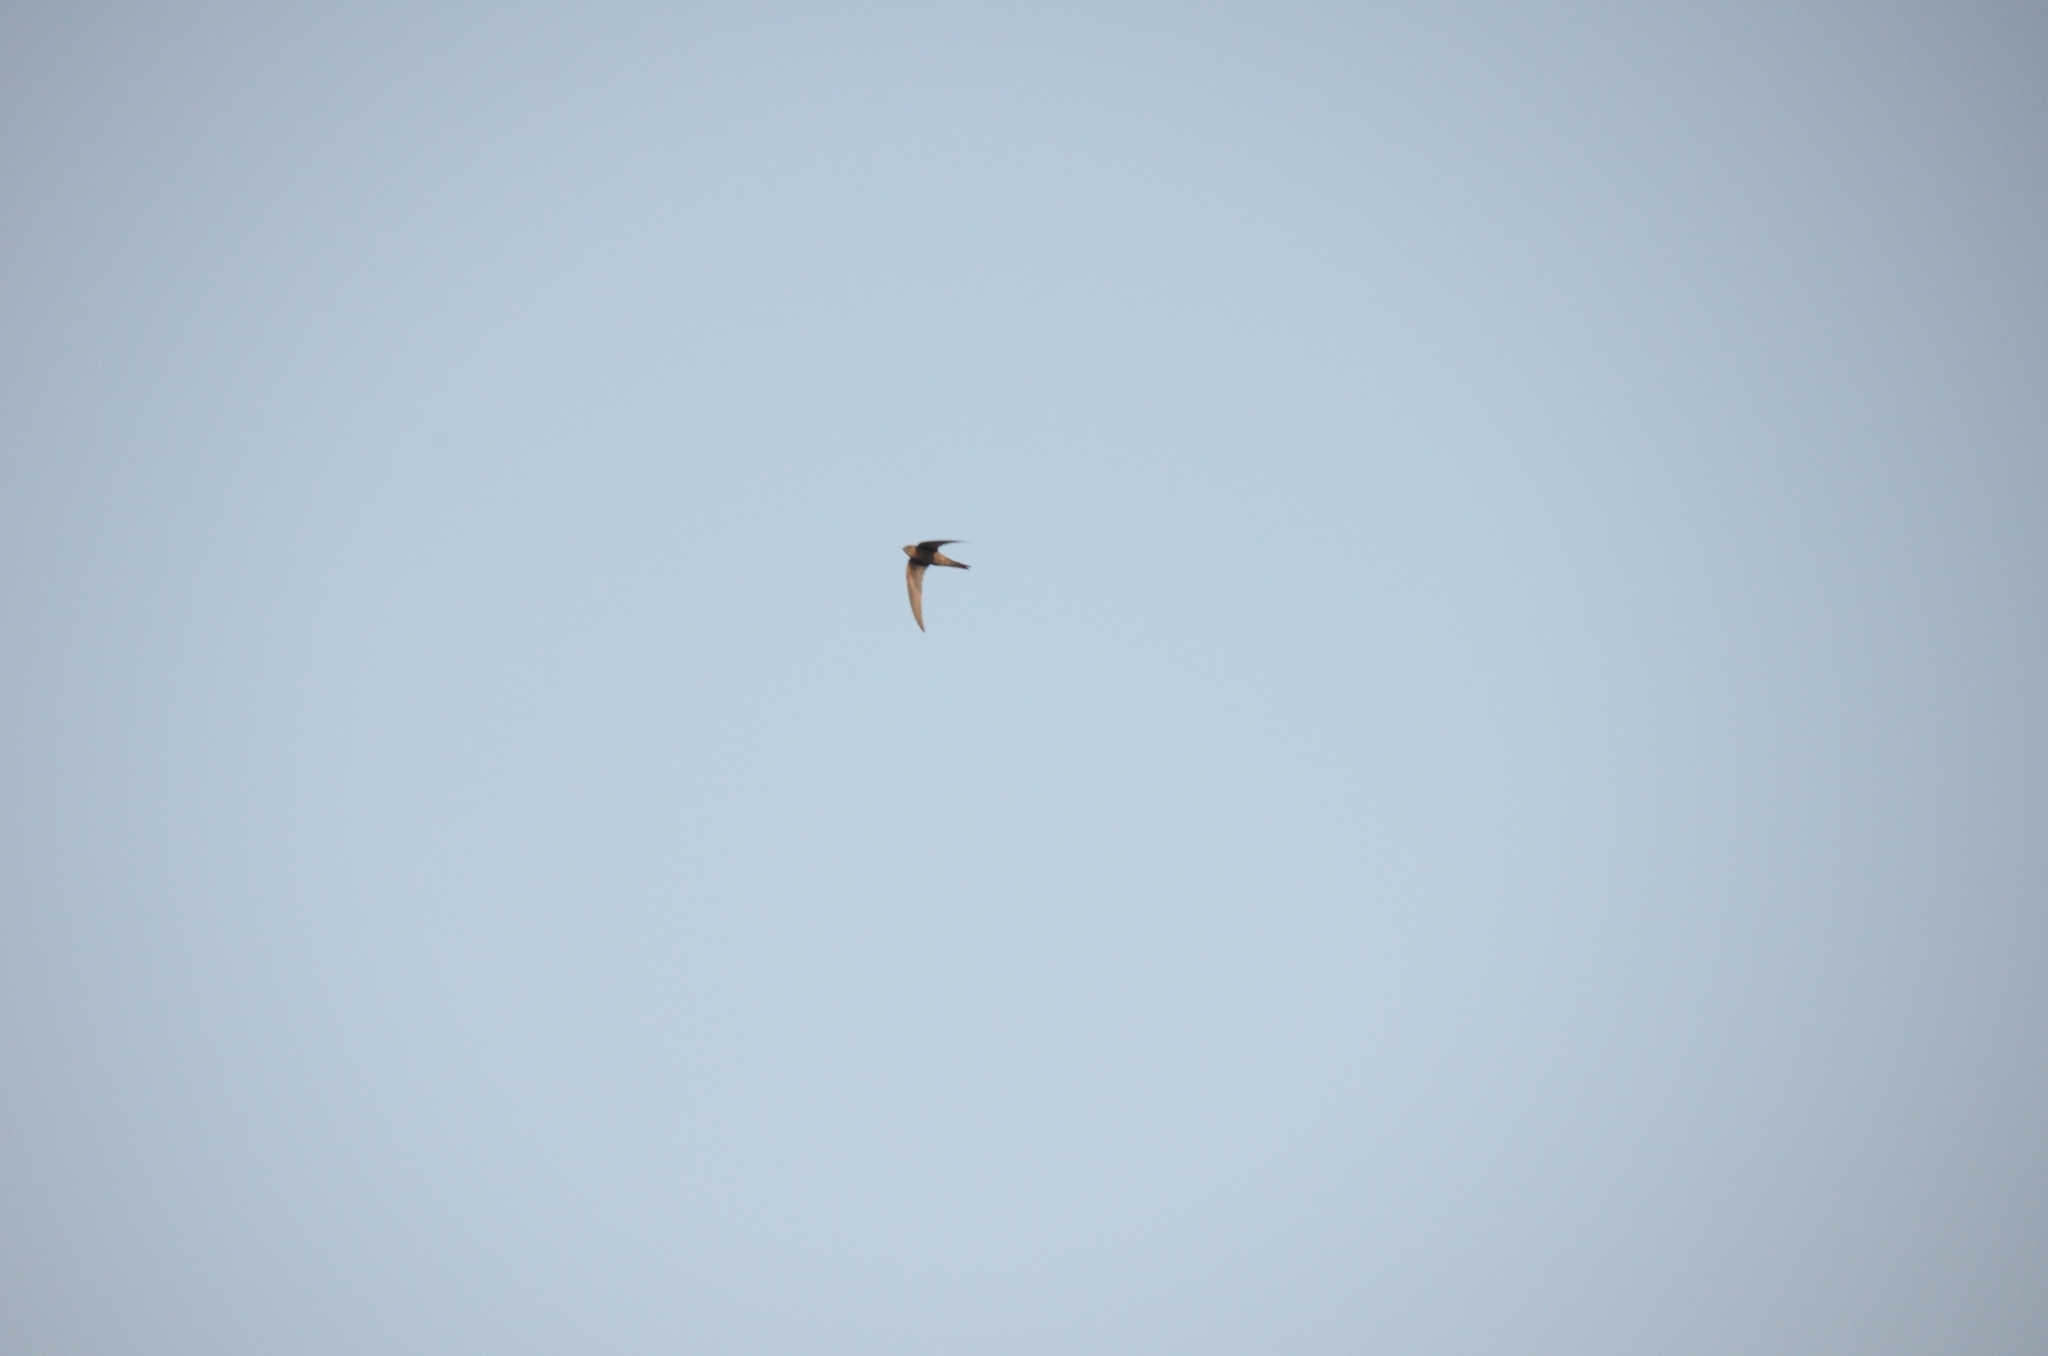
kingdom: Animalia
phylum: Chordata
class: Aves
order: Apodiformes
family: Apodidae
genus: Apus
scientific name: Apus unicolor
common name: Plain swift
